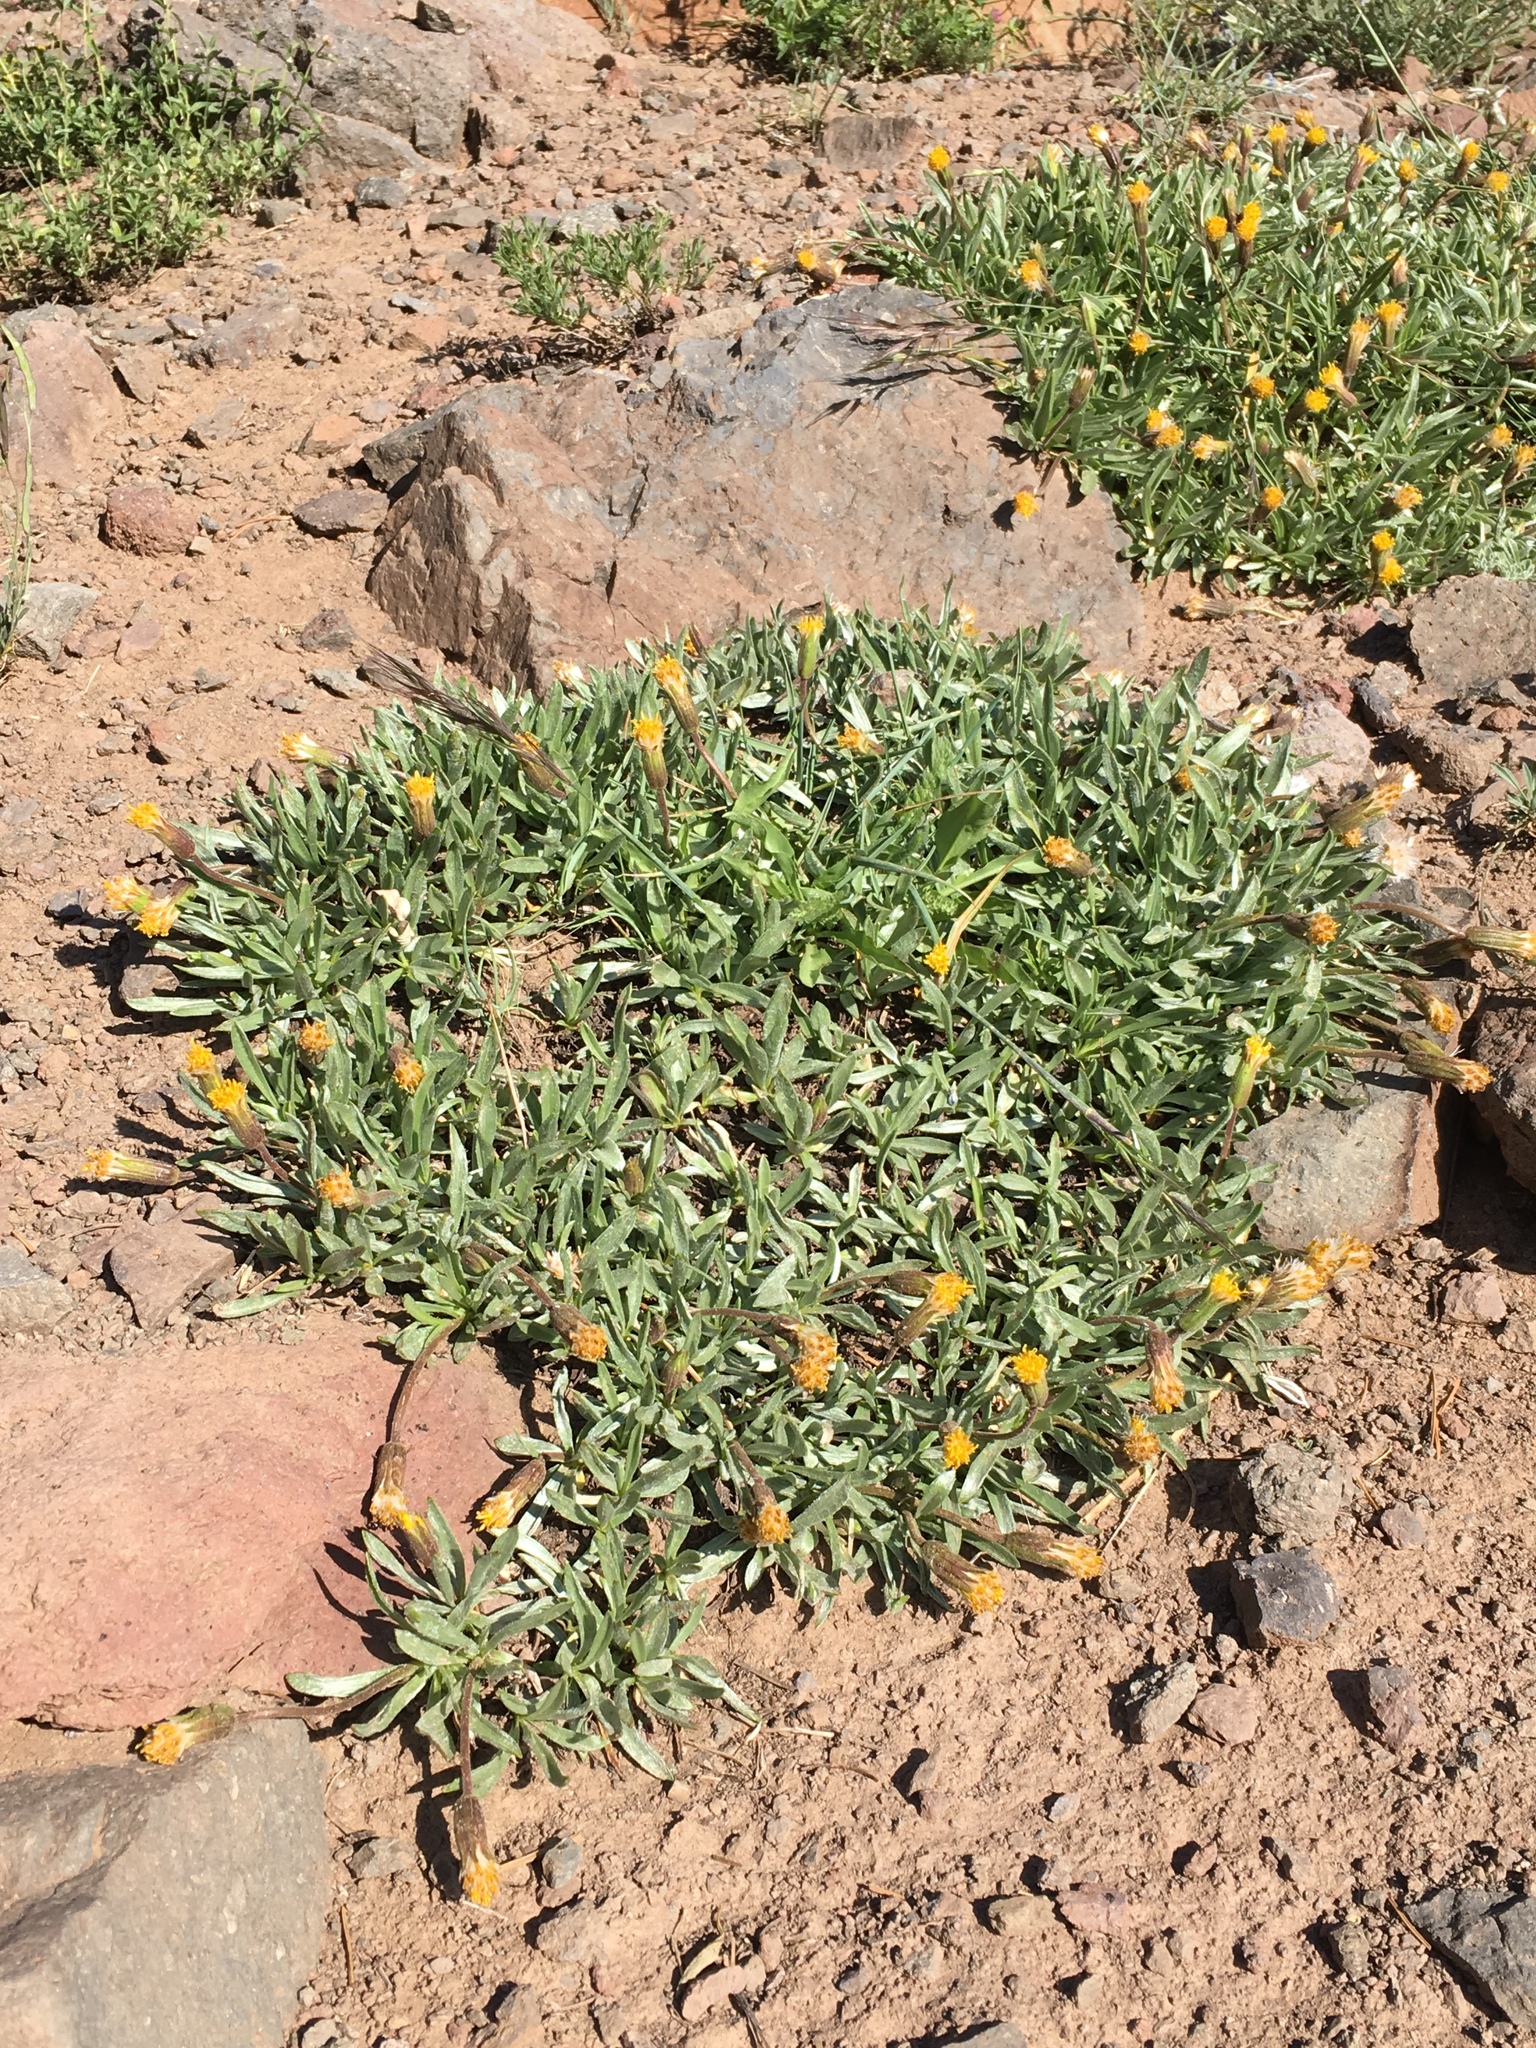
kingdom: Plantae
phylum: Tracheophyta
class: Magnoliopsida
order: Asterales
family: Asteraceae
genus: Raillardella
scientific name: Raillardella argentea
